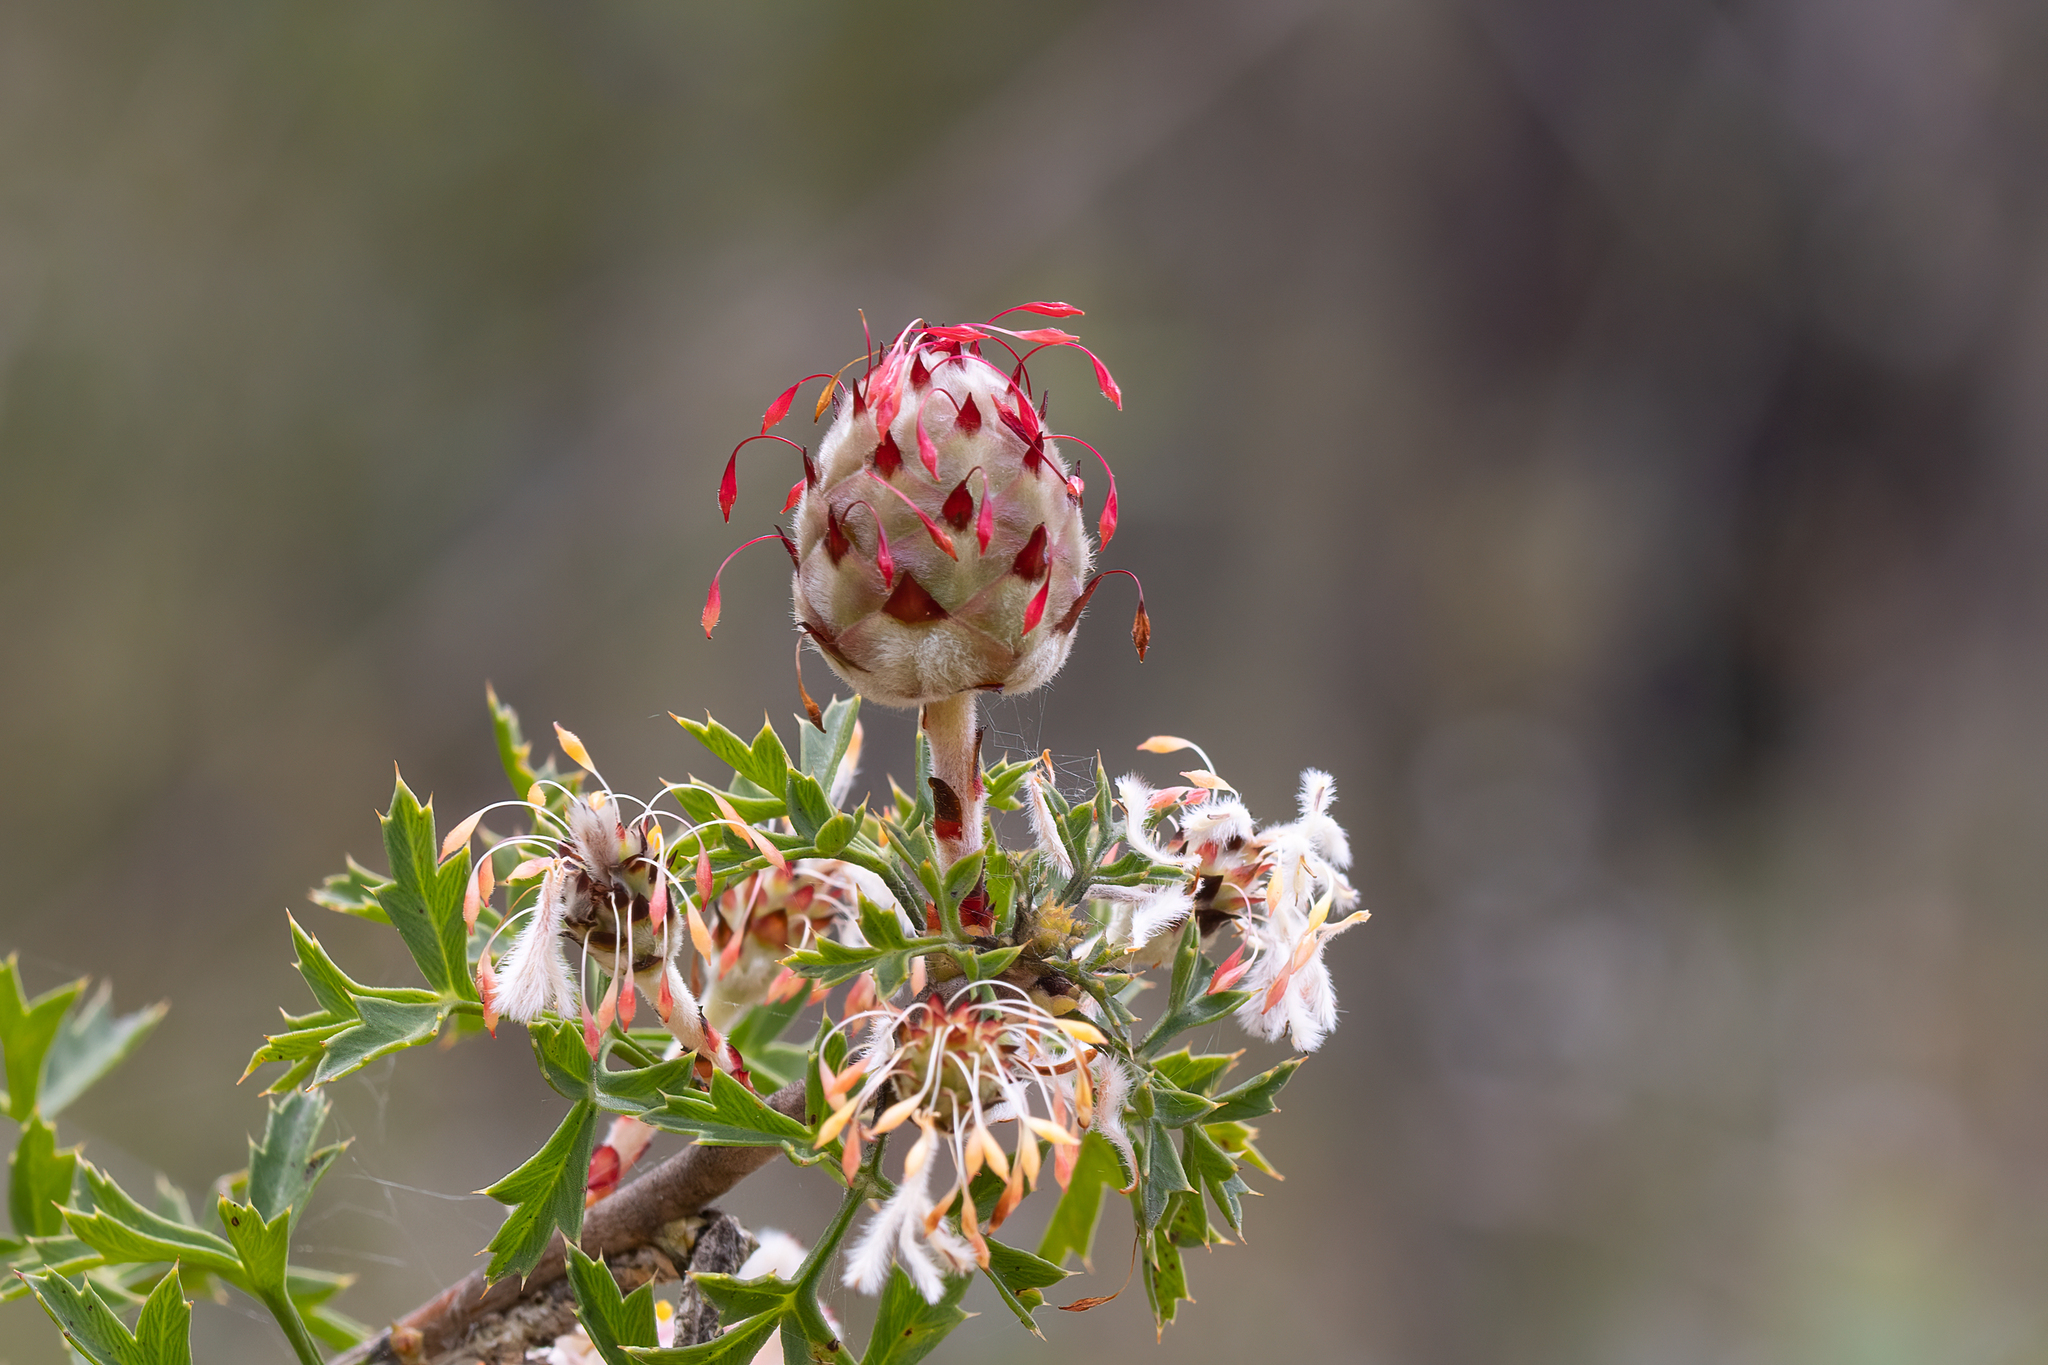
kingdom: Plantae
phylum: Tracheophyta
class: Magnoliopsida
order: Proteales
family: Proteaceae
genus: Petrophile
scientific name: Petrophile diversifolia
